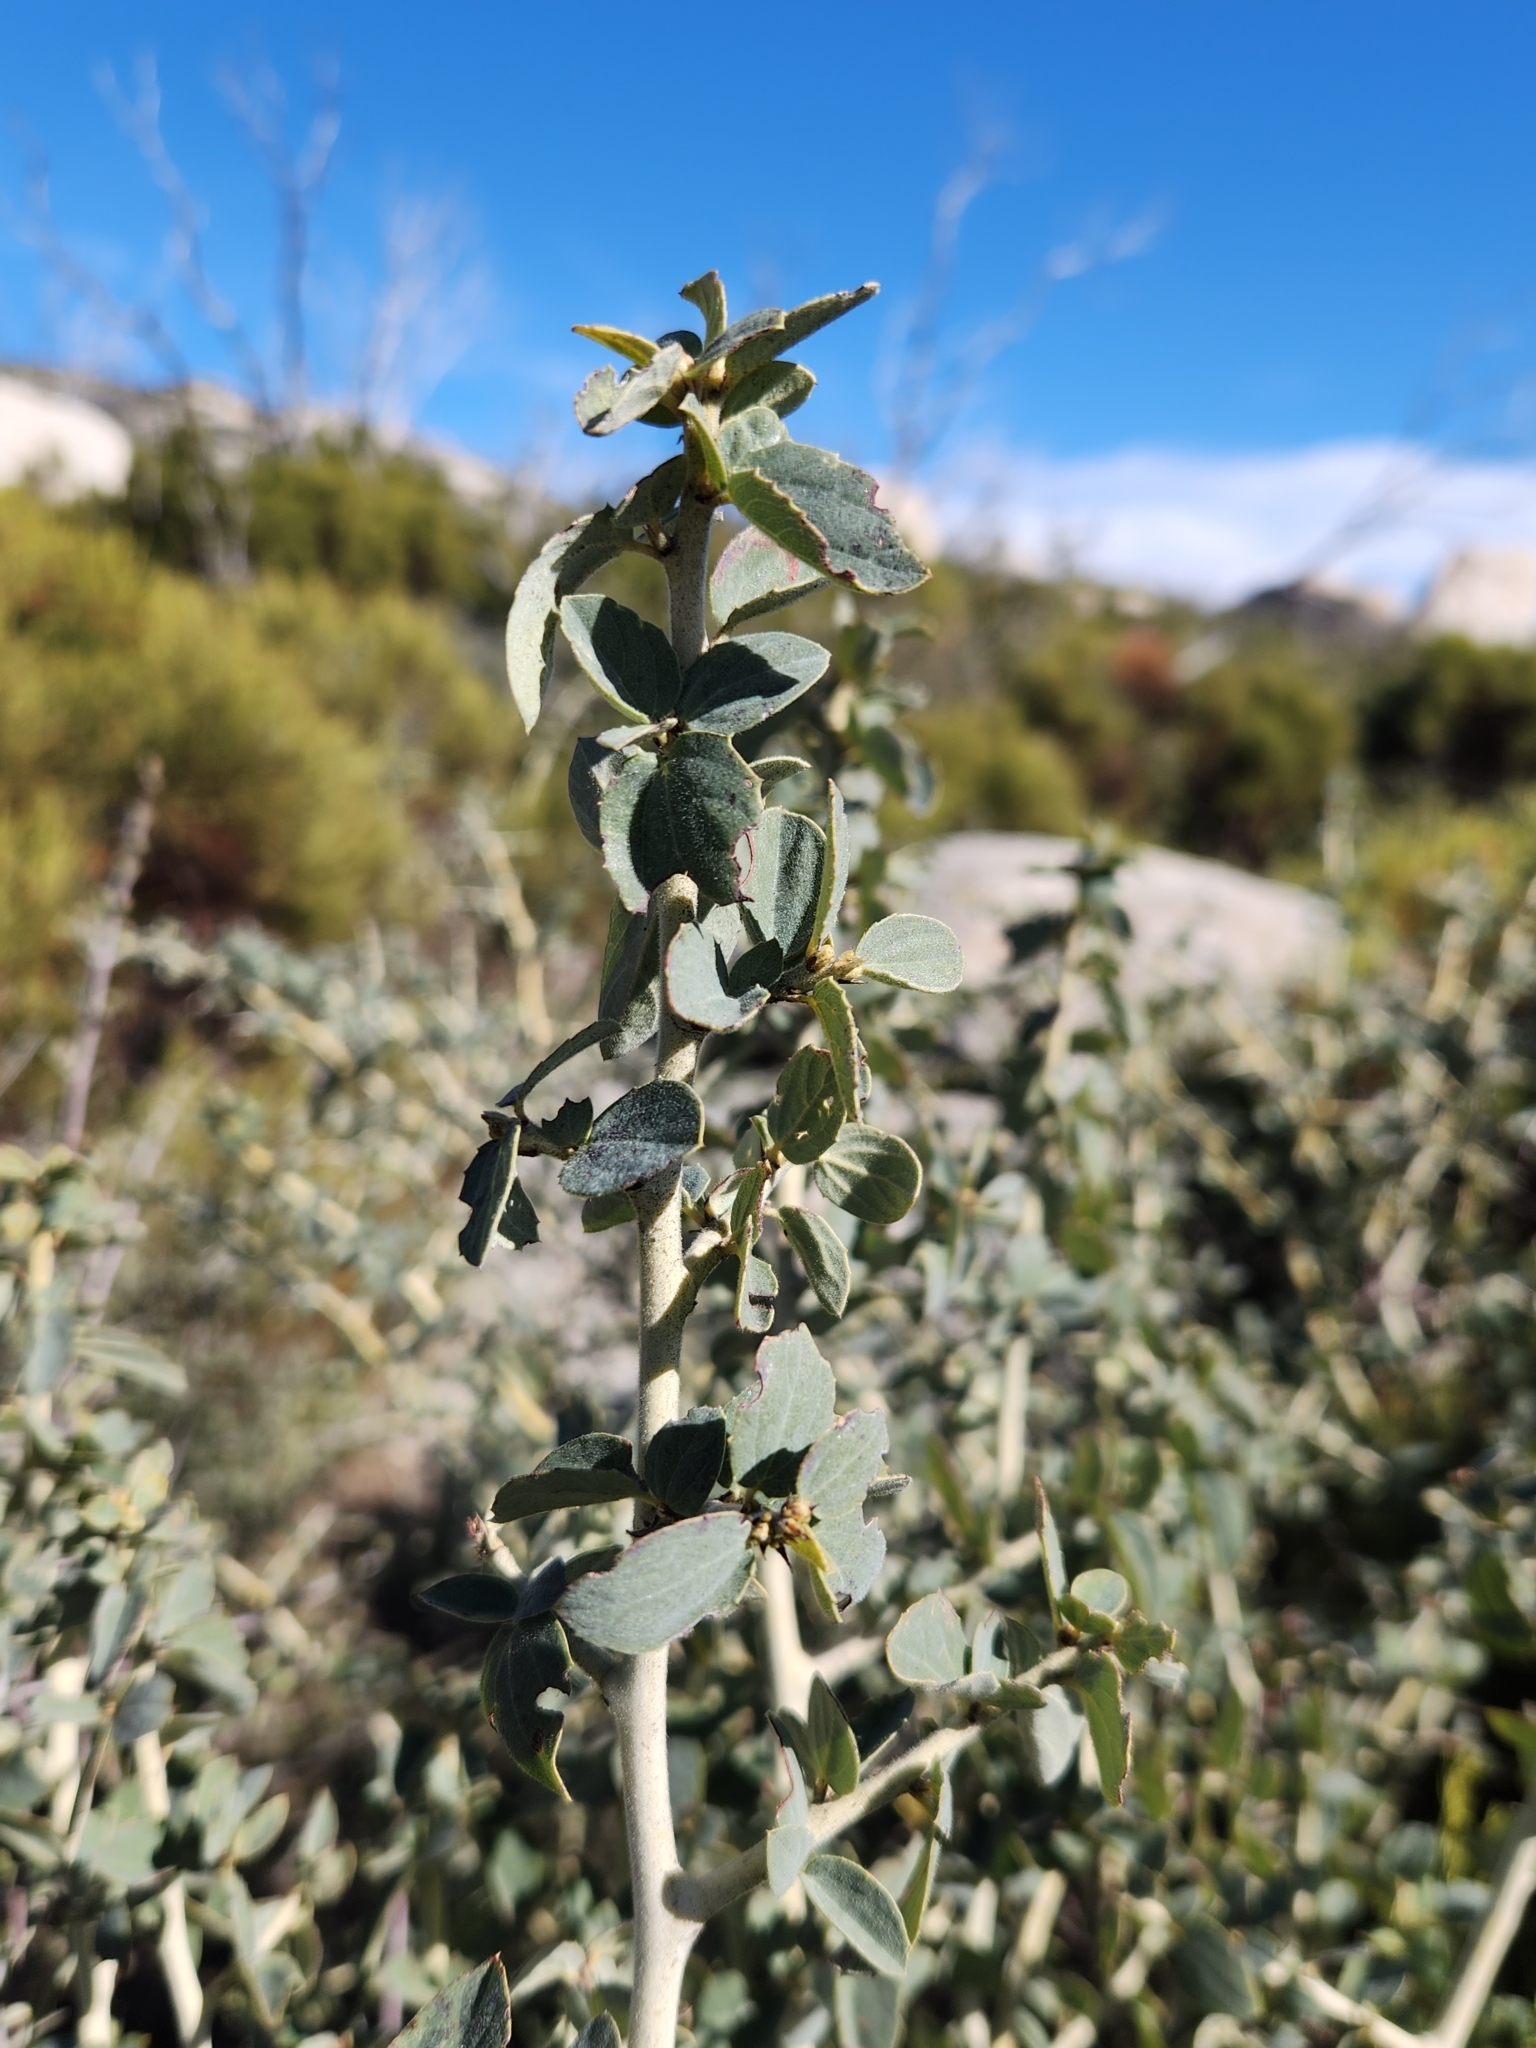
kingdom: Plantae
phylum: Tracheophyta
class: Magnoliopsida
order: Rosales
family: Rhamnaceae
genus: Ceanothus
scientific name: Ceanothus leucodermis
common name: Chaparral whitethorn
